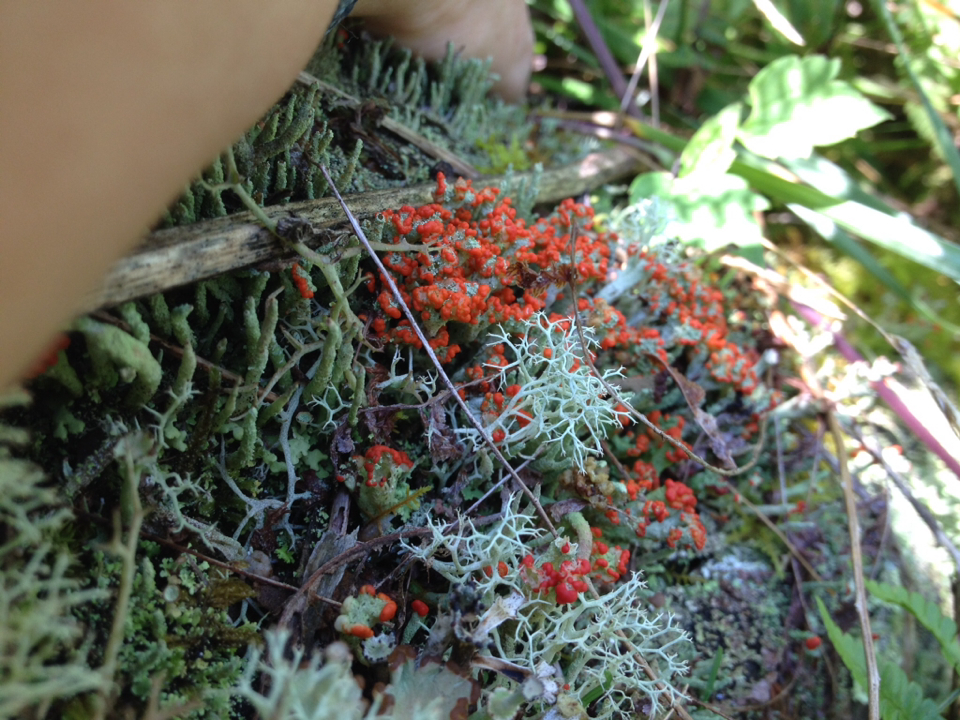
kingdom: Fungi
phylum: Ascomycota
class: Lecanoromycetes
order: Lecanorales
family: Cladoniaceae
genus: Cladonia
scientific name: Cladonia cristatella
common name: British soldier lichen
